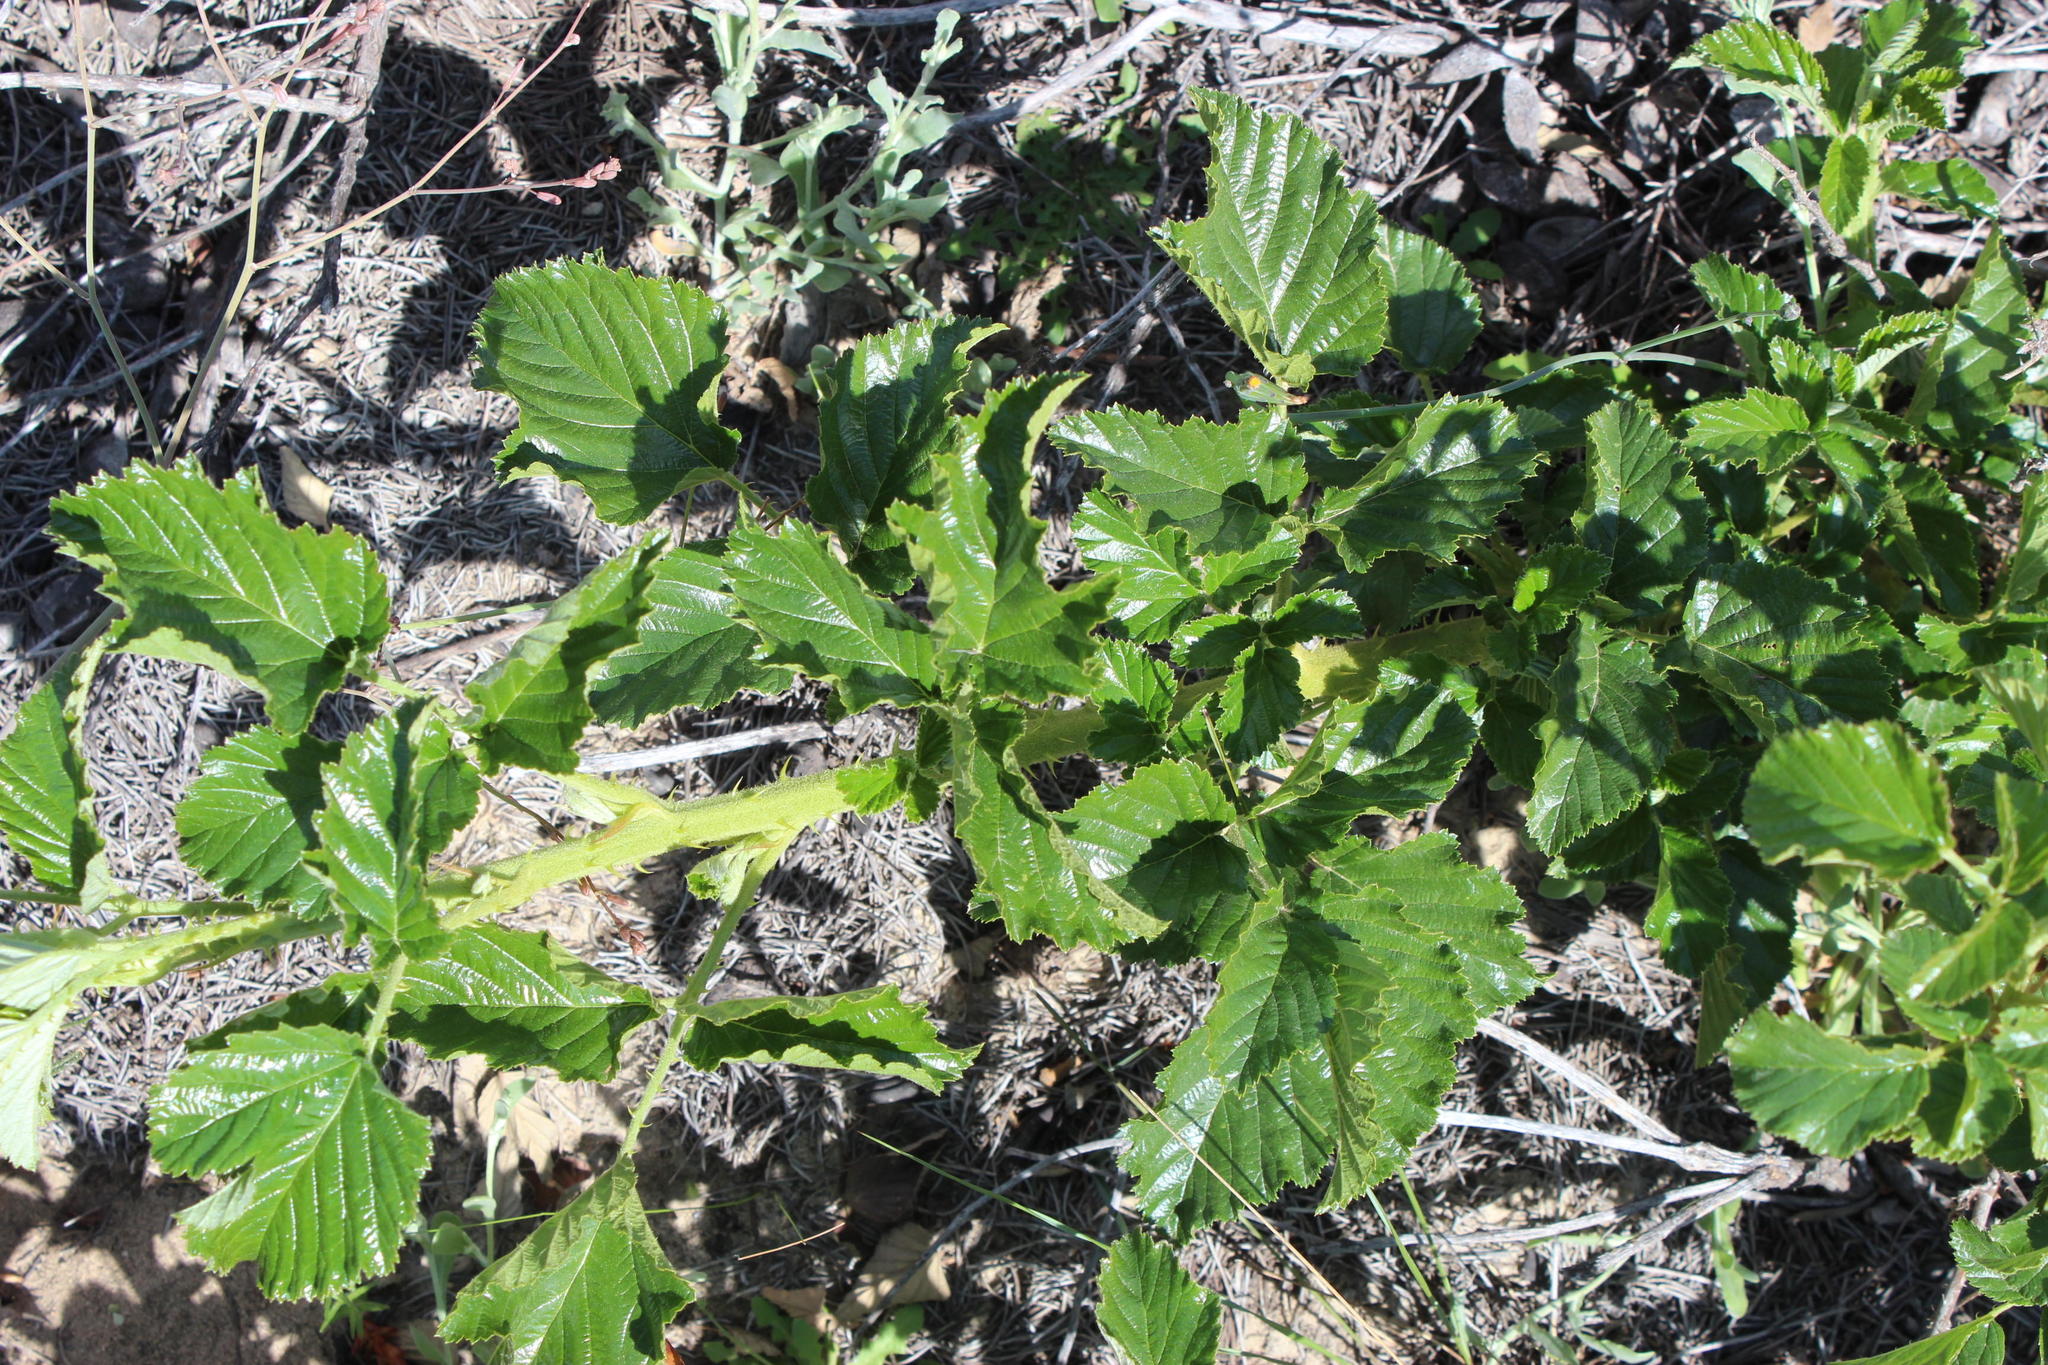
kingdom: Plantae
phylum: Tracheophyta
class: Magnoliopsida
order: Rosales
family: Rosaceae
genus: Rubus
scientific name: Rubus rigidus
